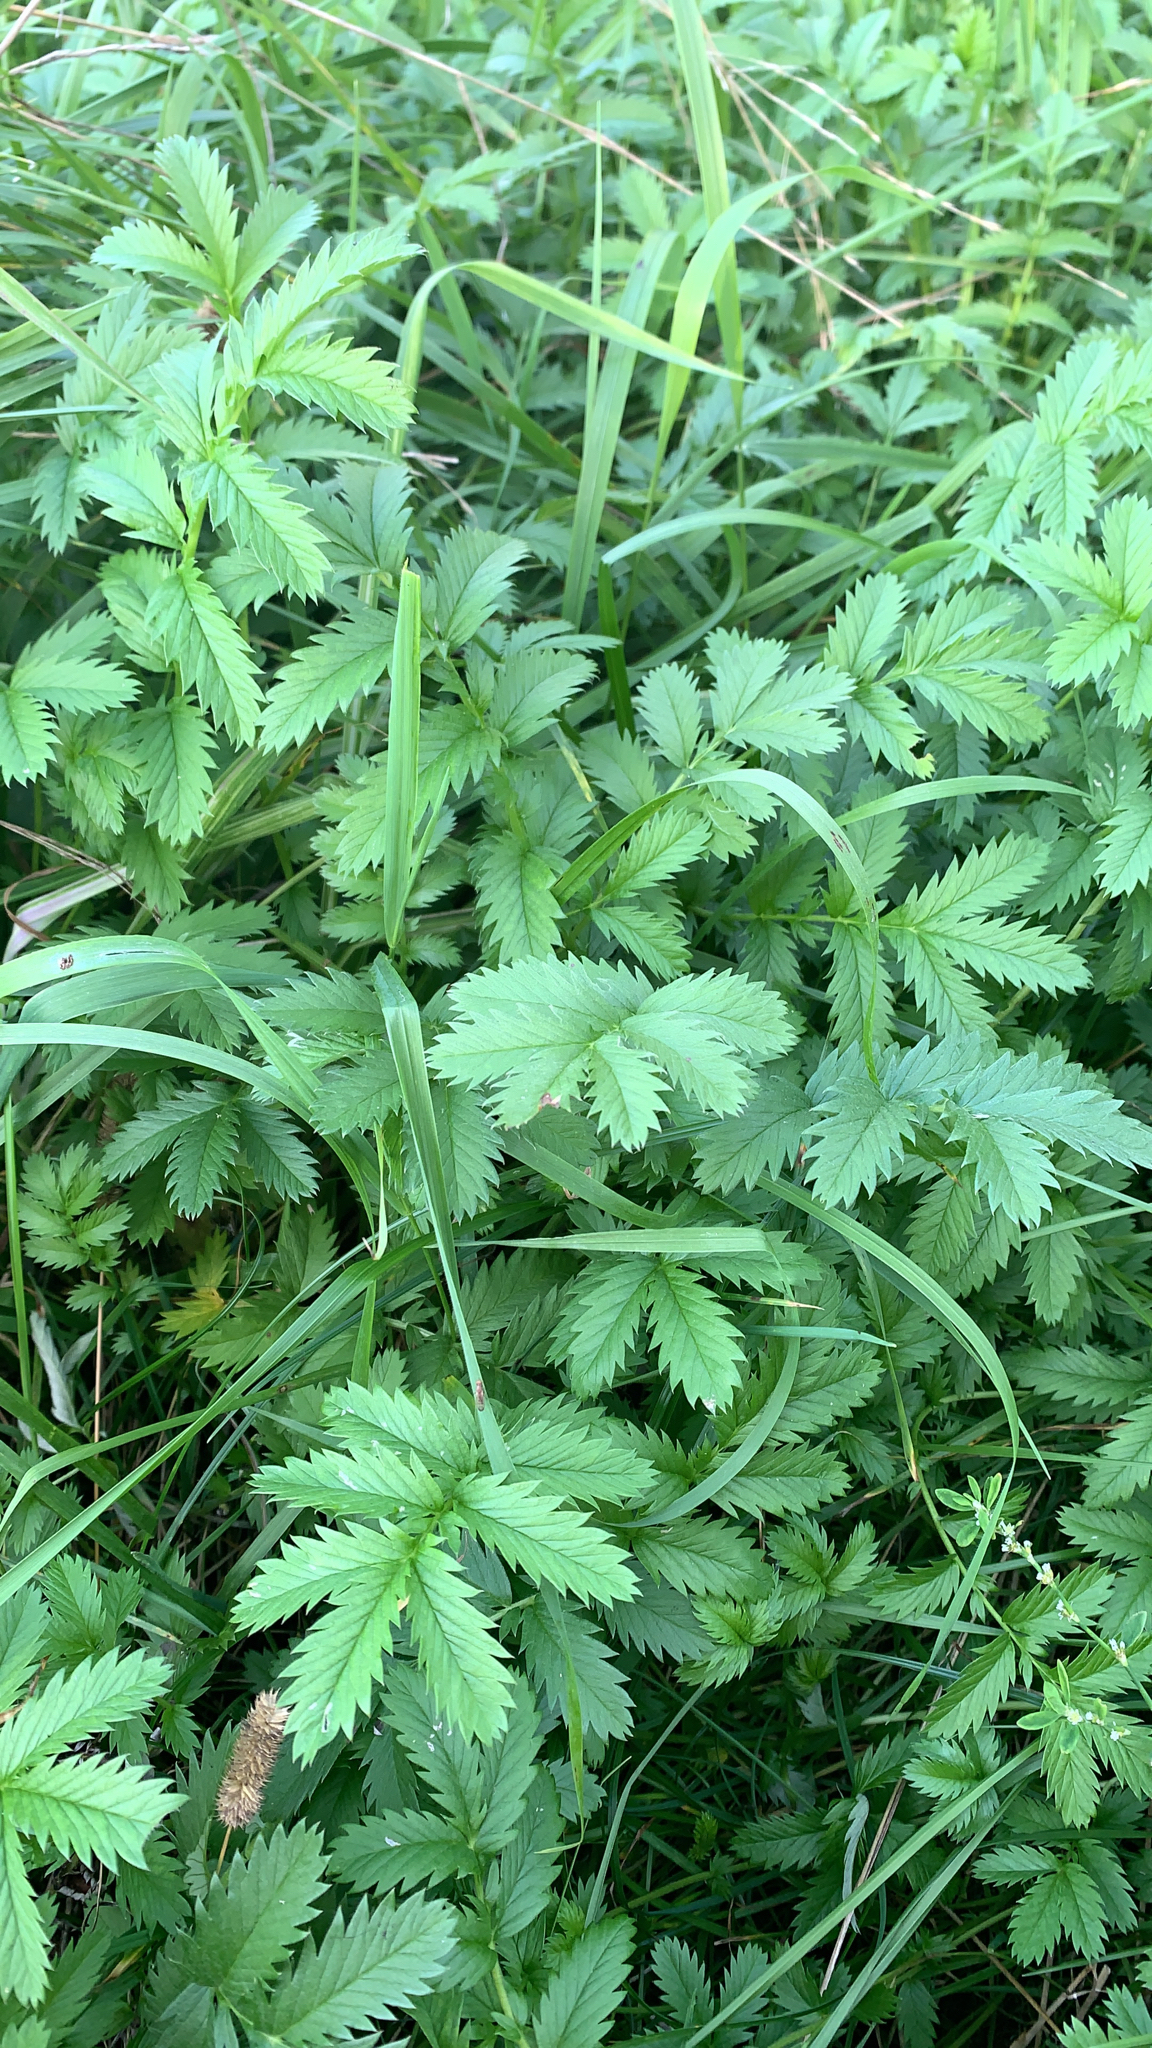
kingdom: Plantae
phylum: Tracheophyta
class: Magnoliopsida
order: Rosales
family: Rosaceae
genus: Argentina
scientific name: Argentina anserina
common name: Common silverweed
